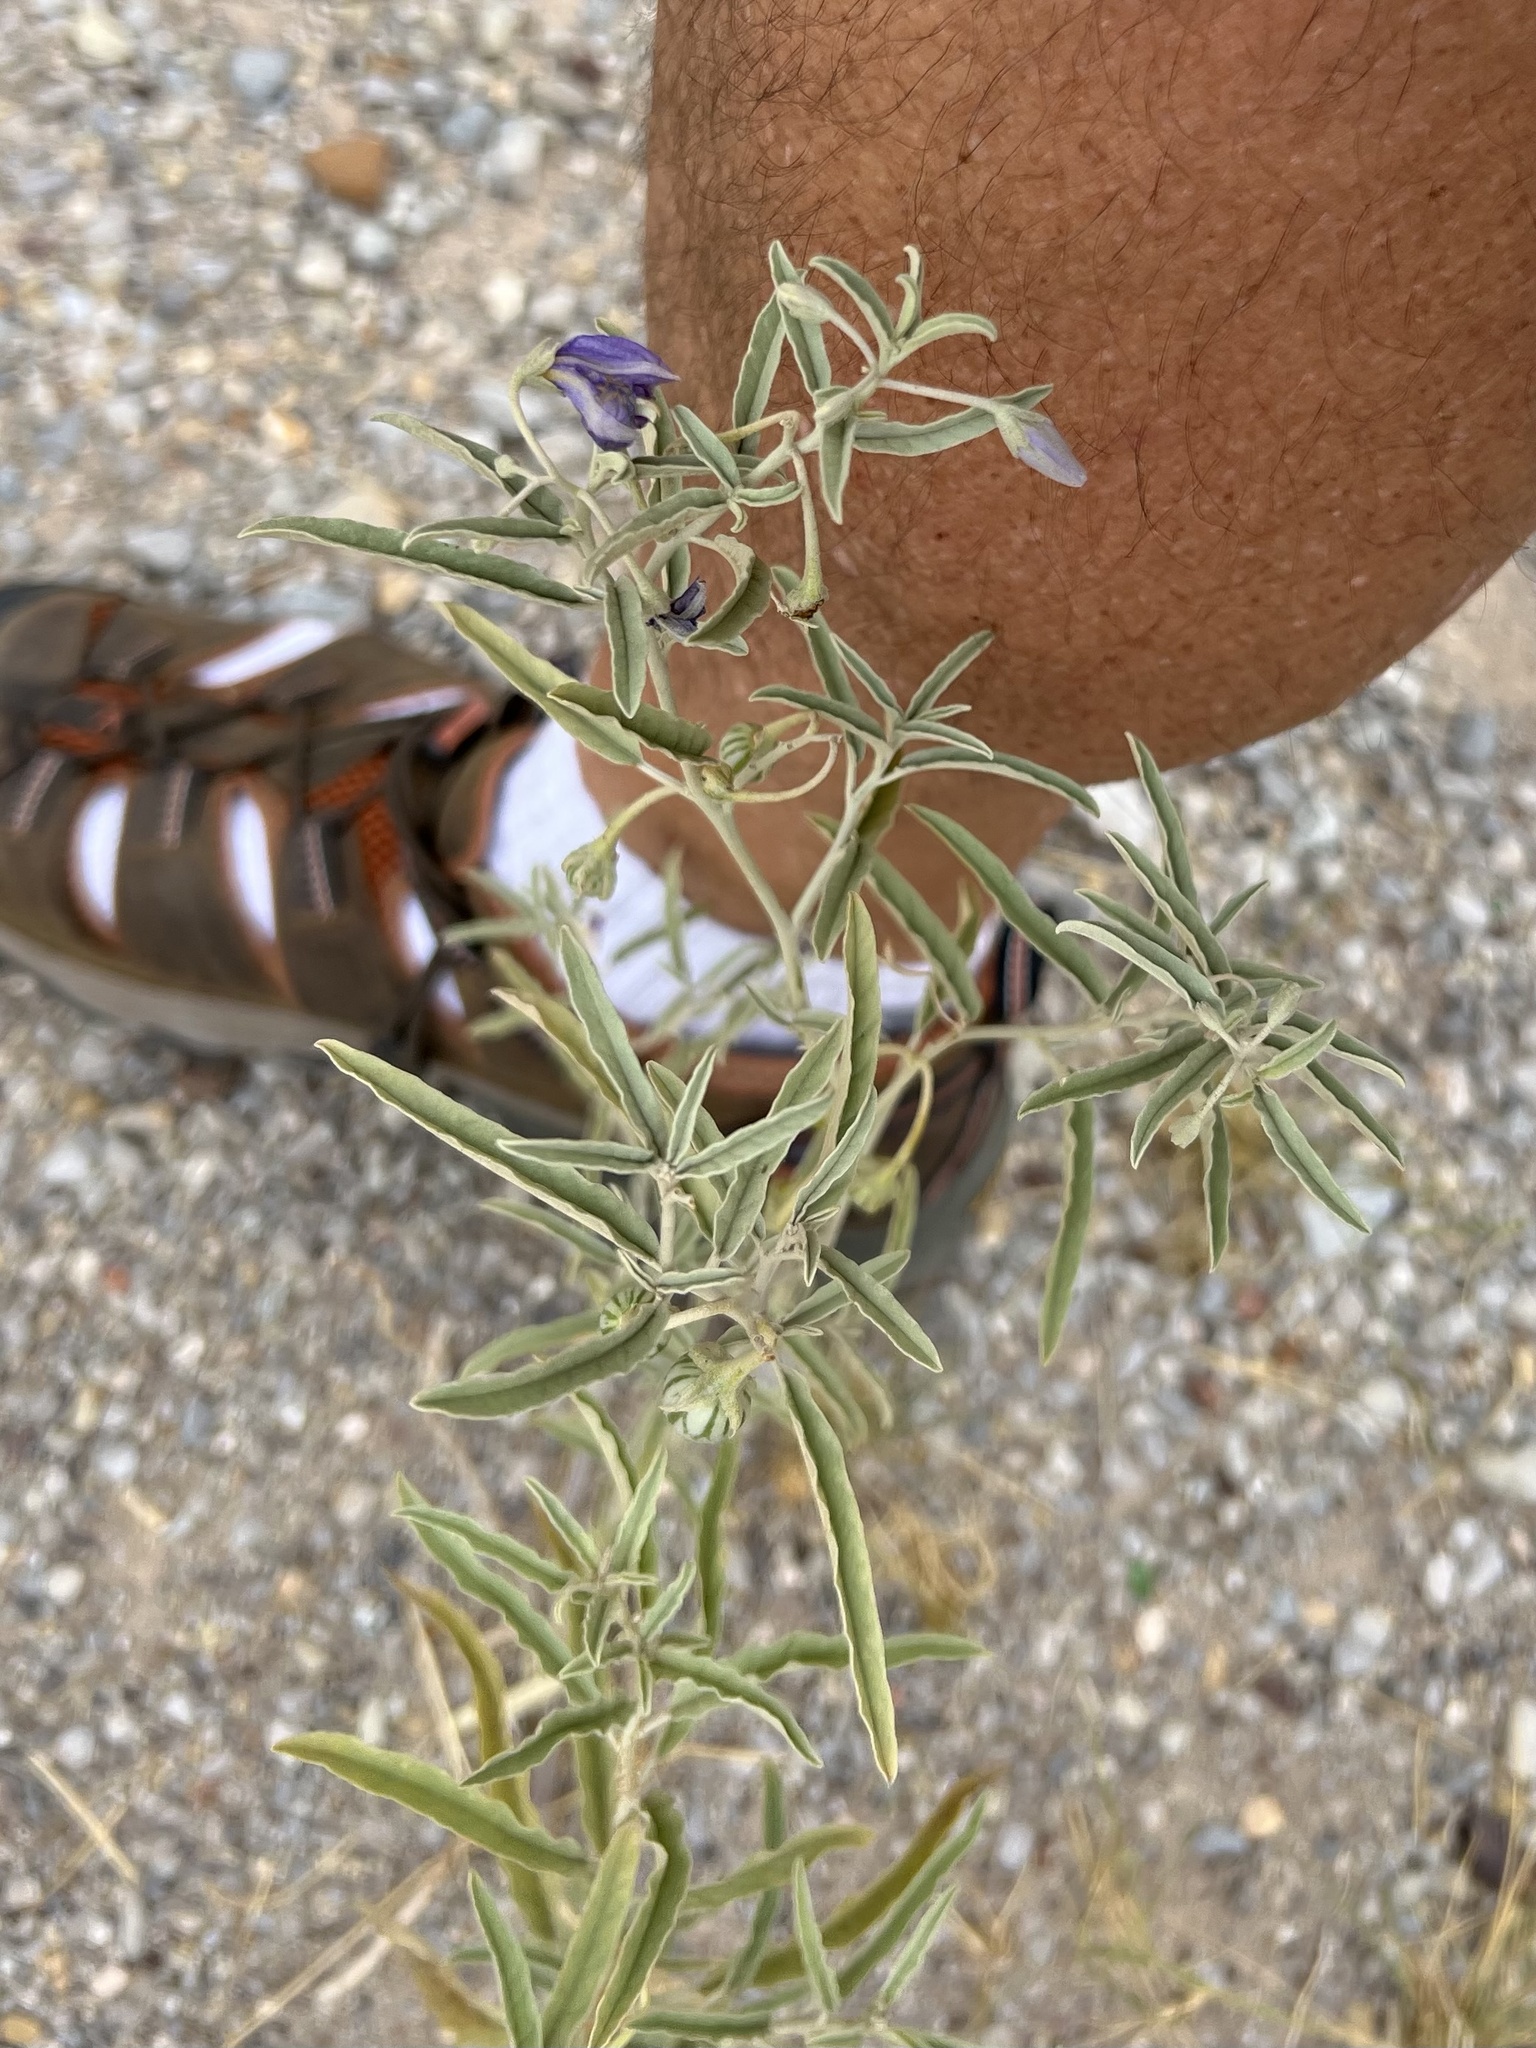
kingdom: Plantae
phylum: Tracheophyta
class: Magnoliopsida
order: Solanales
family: Solanaceae
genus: Solanum
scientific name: Solanum elaeagnifolium
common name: Silverleaf nightshade
